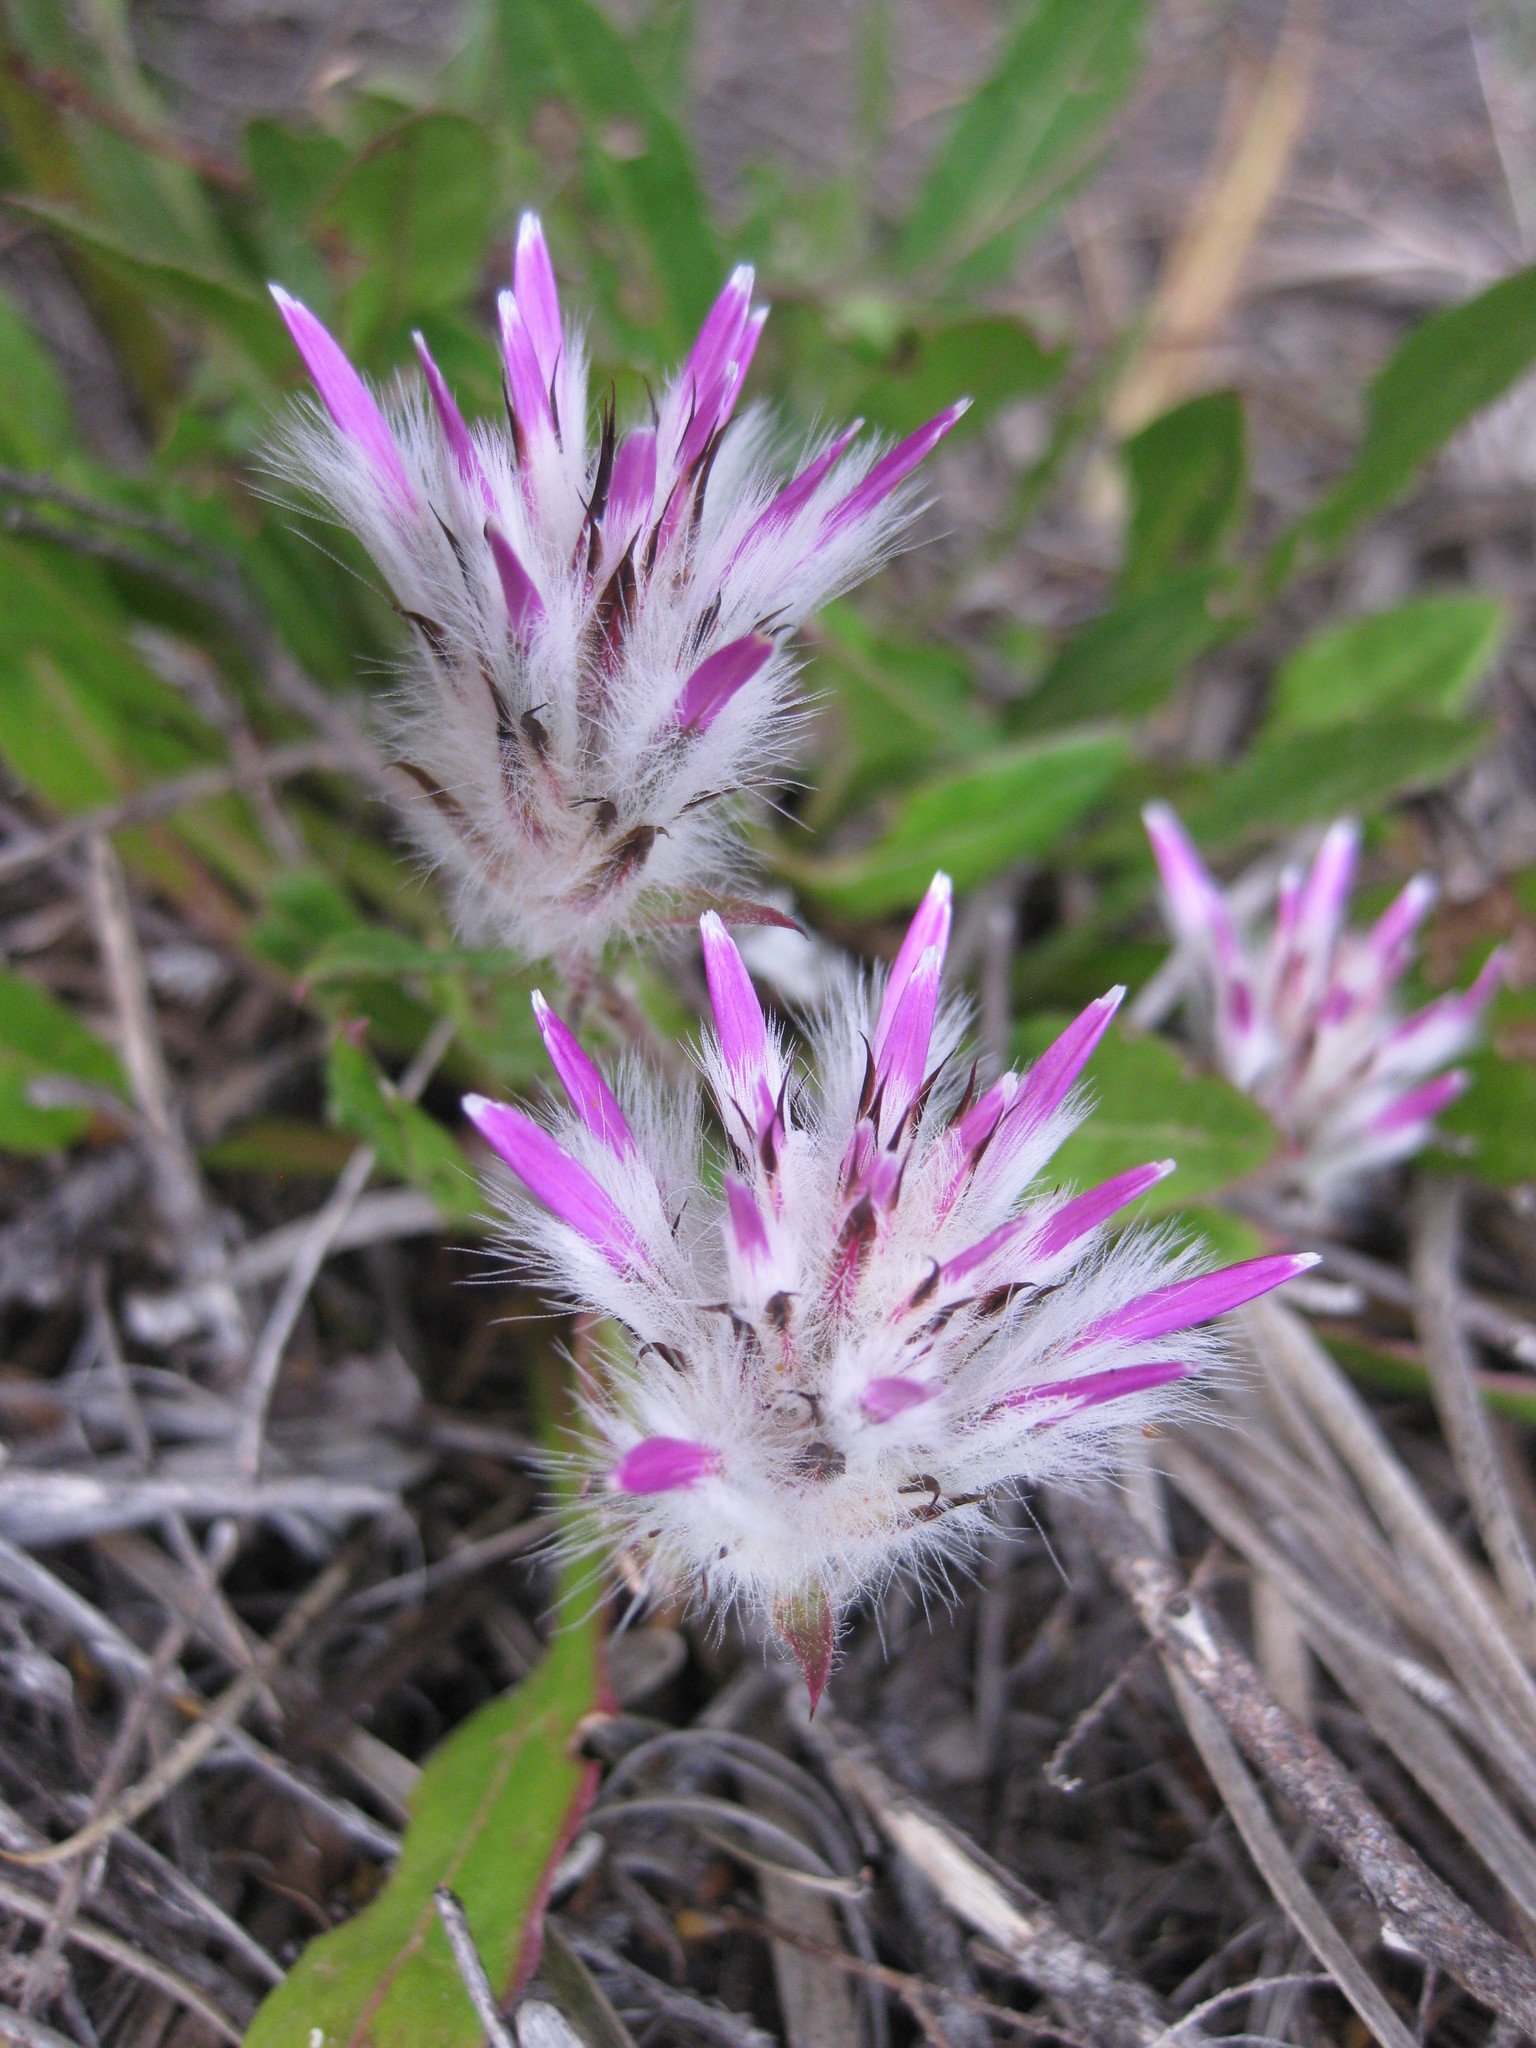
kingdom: Plantae
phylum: Tracheophyta
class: Magnoliopsida
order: Caryophyllales
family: Amaranthaceae
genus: Ptilotus
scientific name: Ptilotus manglesii
